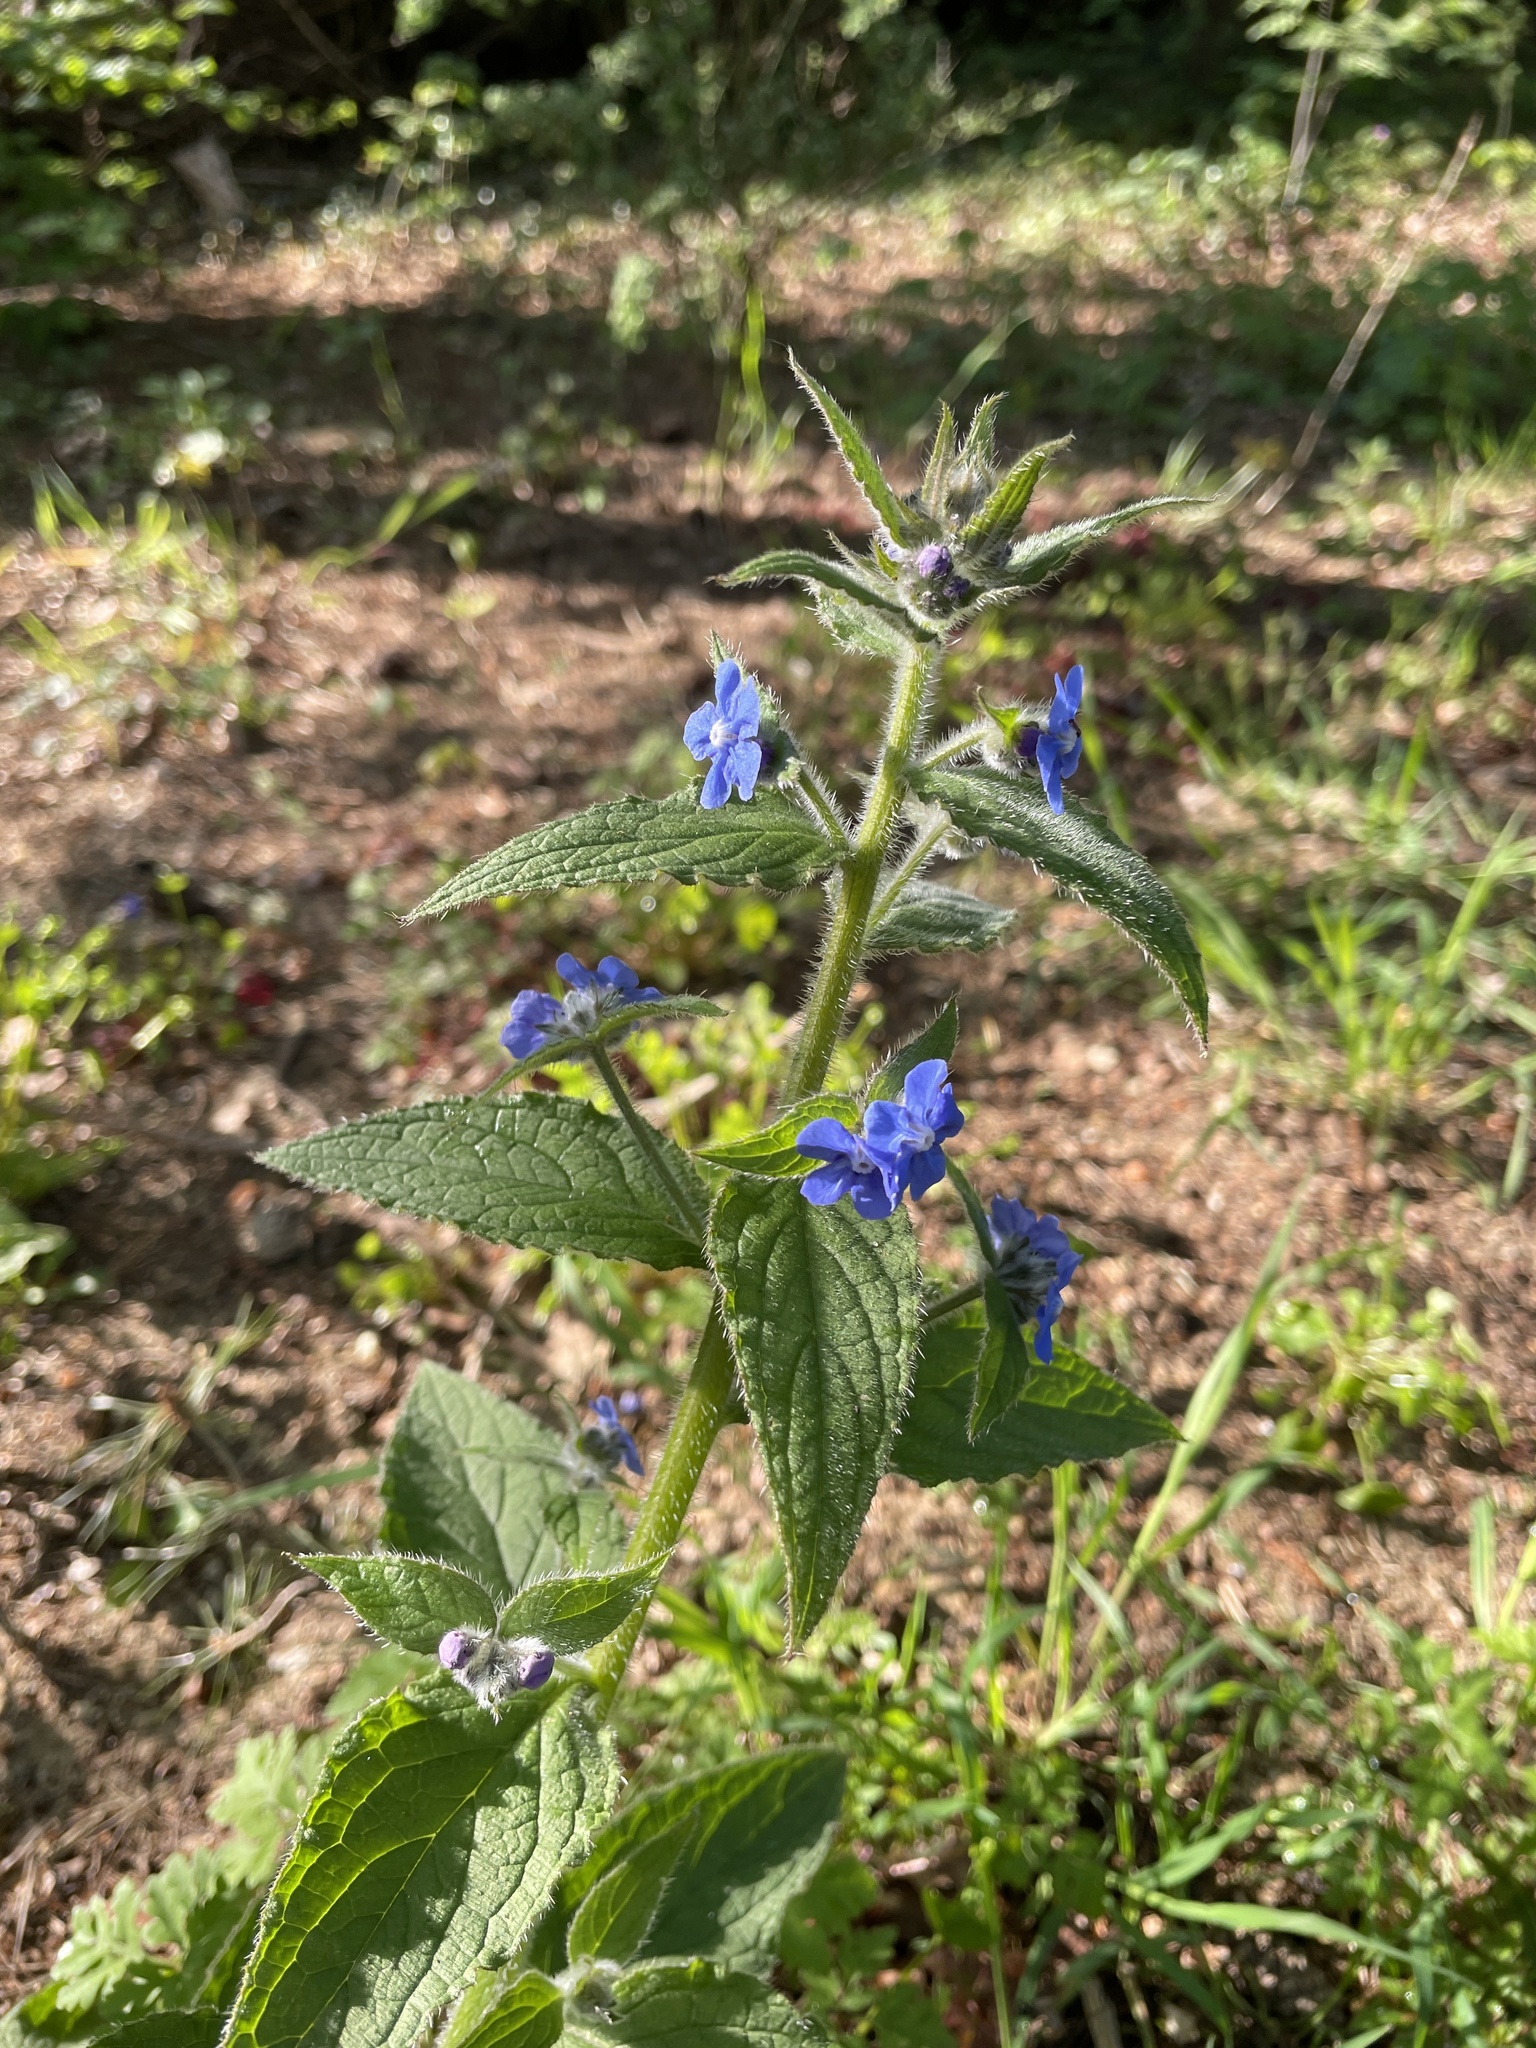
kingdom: Plantae
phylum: Tracheophyta
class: Magnoliopsida
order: Boraginales
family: Boraginaceae
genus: Pentaglottis
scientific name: Pentaglottis sempervirens
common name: Green alkanet
